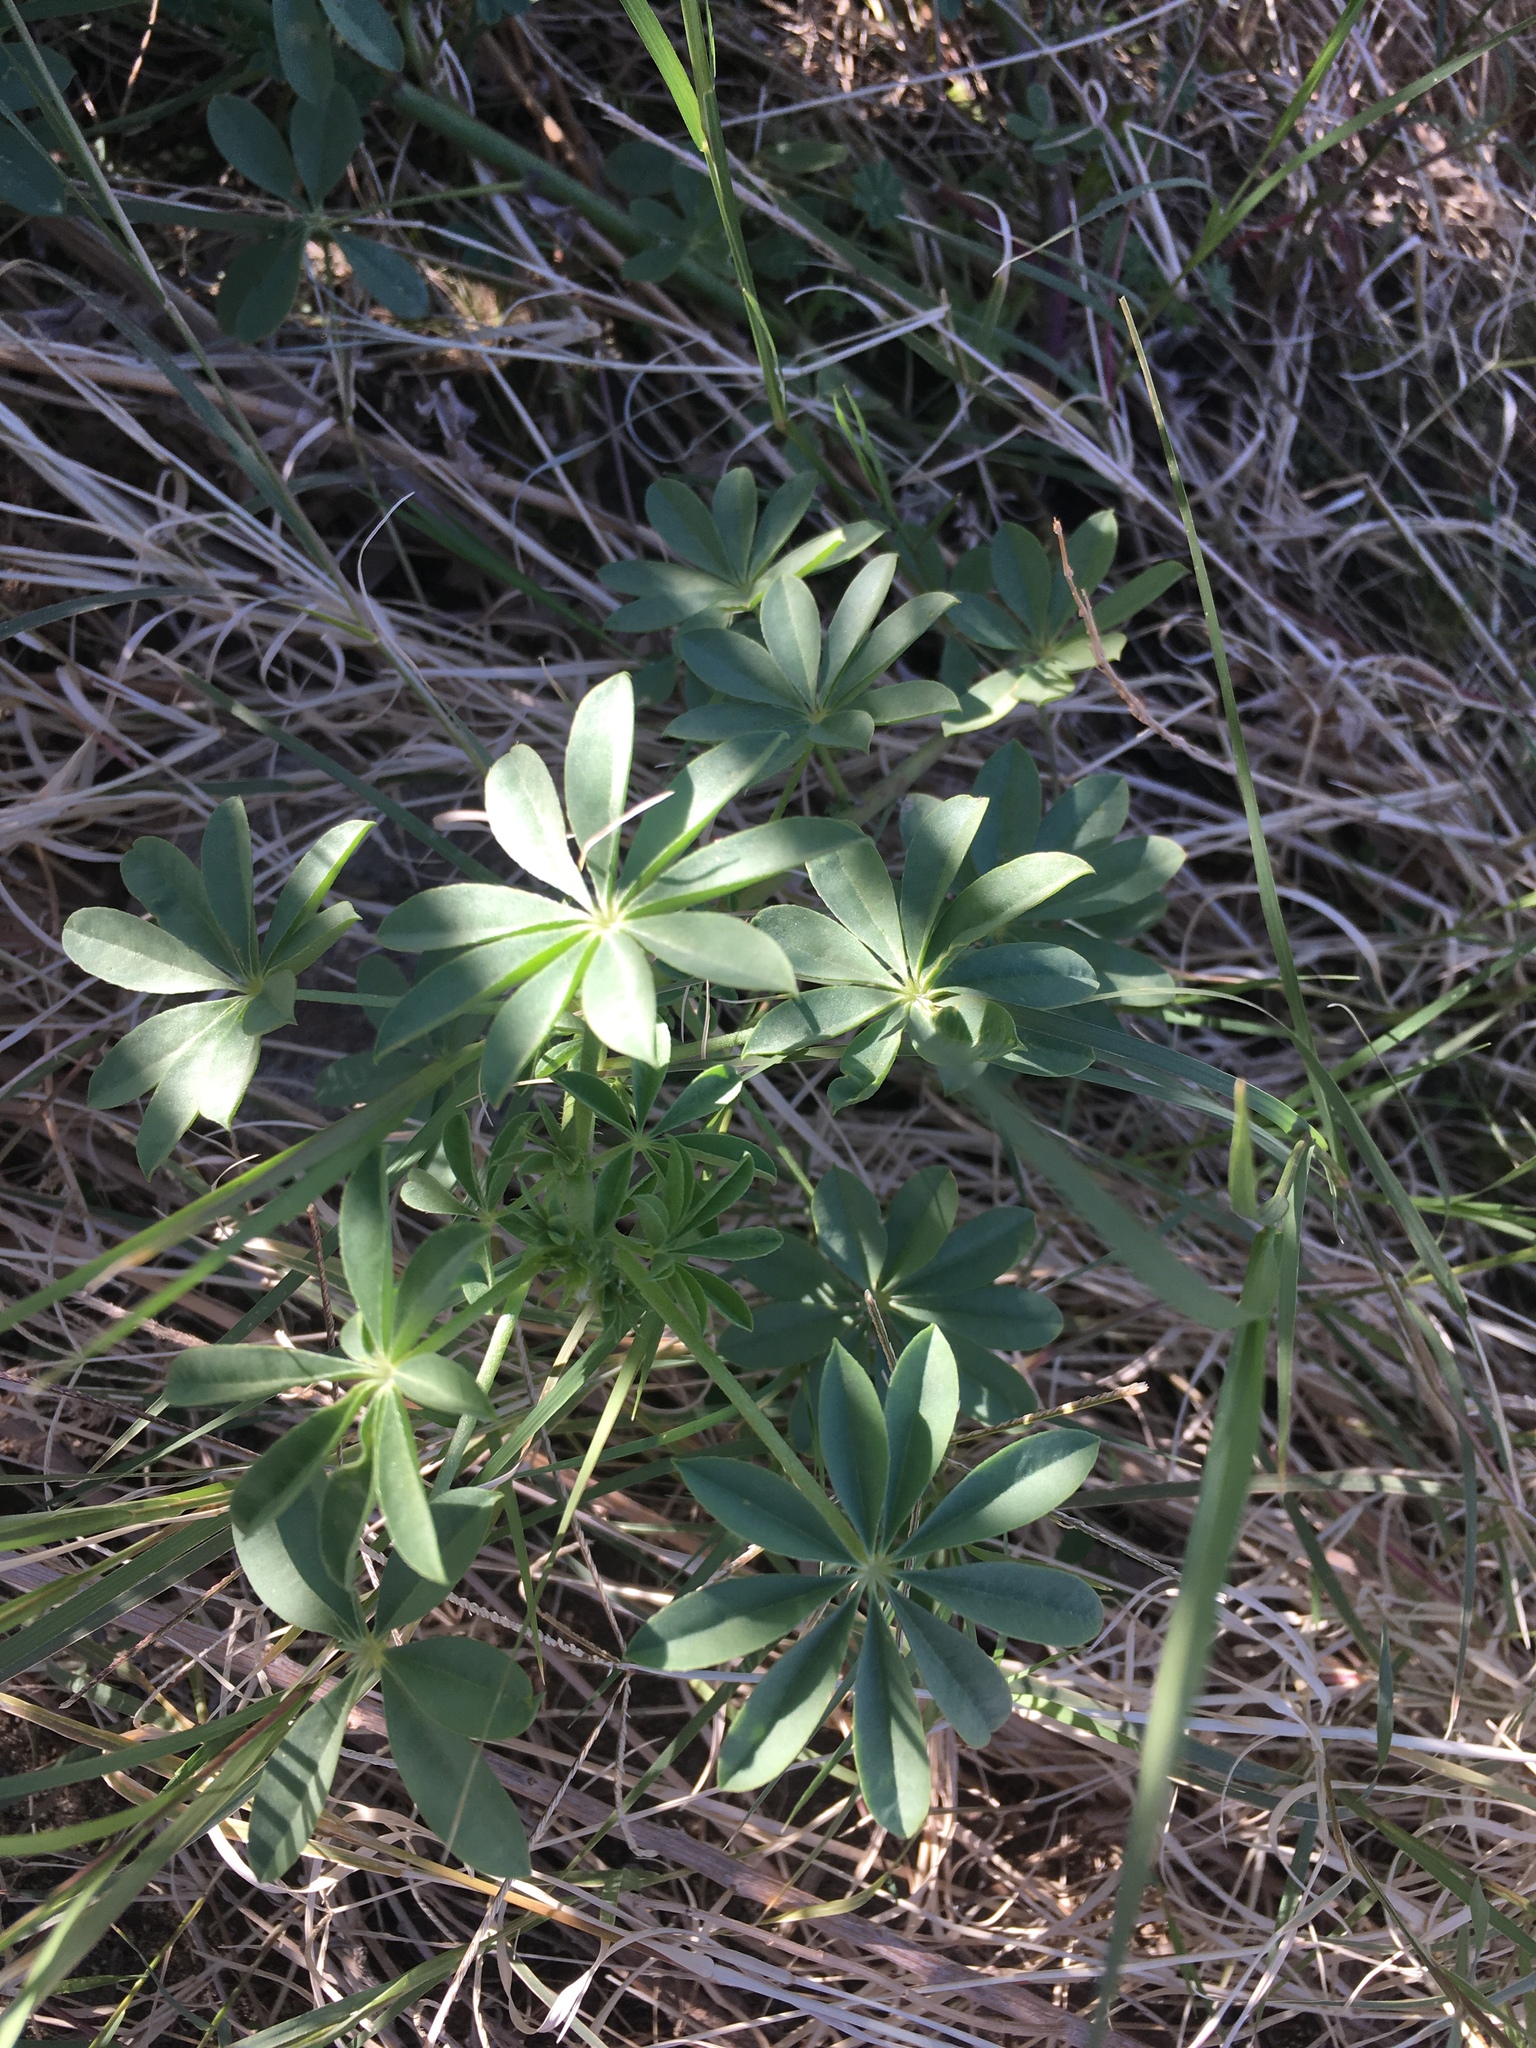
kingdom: Plantae
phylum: Tracheophyta
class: Magnoliopsida
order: Fabales
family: Fabaceae
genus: Lupinus
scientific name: Lupinus arizonicus
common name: Arizona lupine
